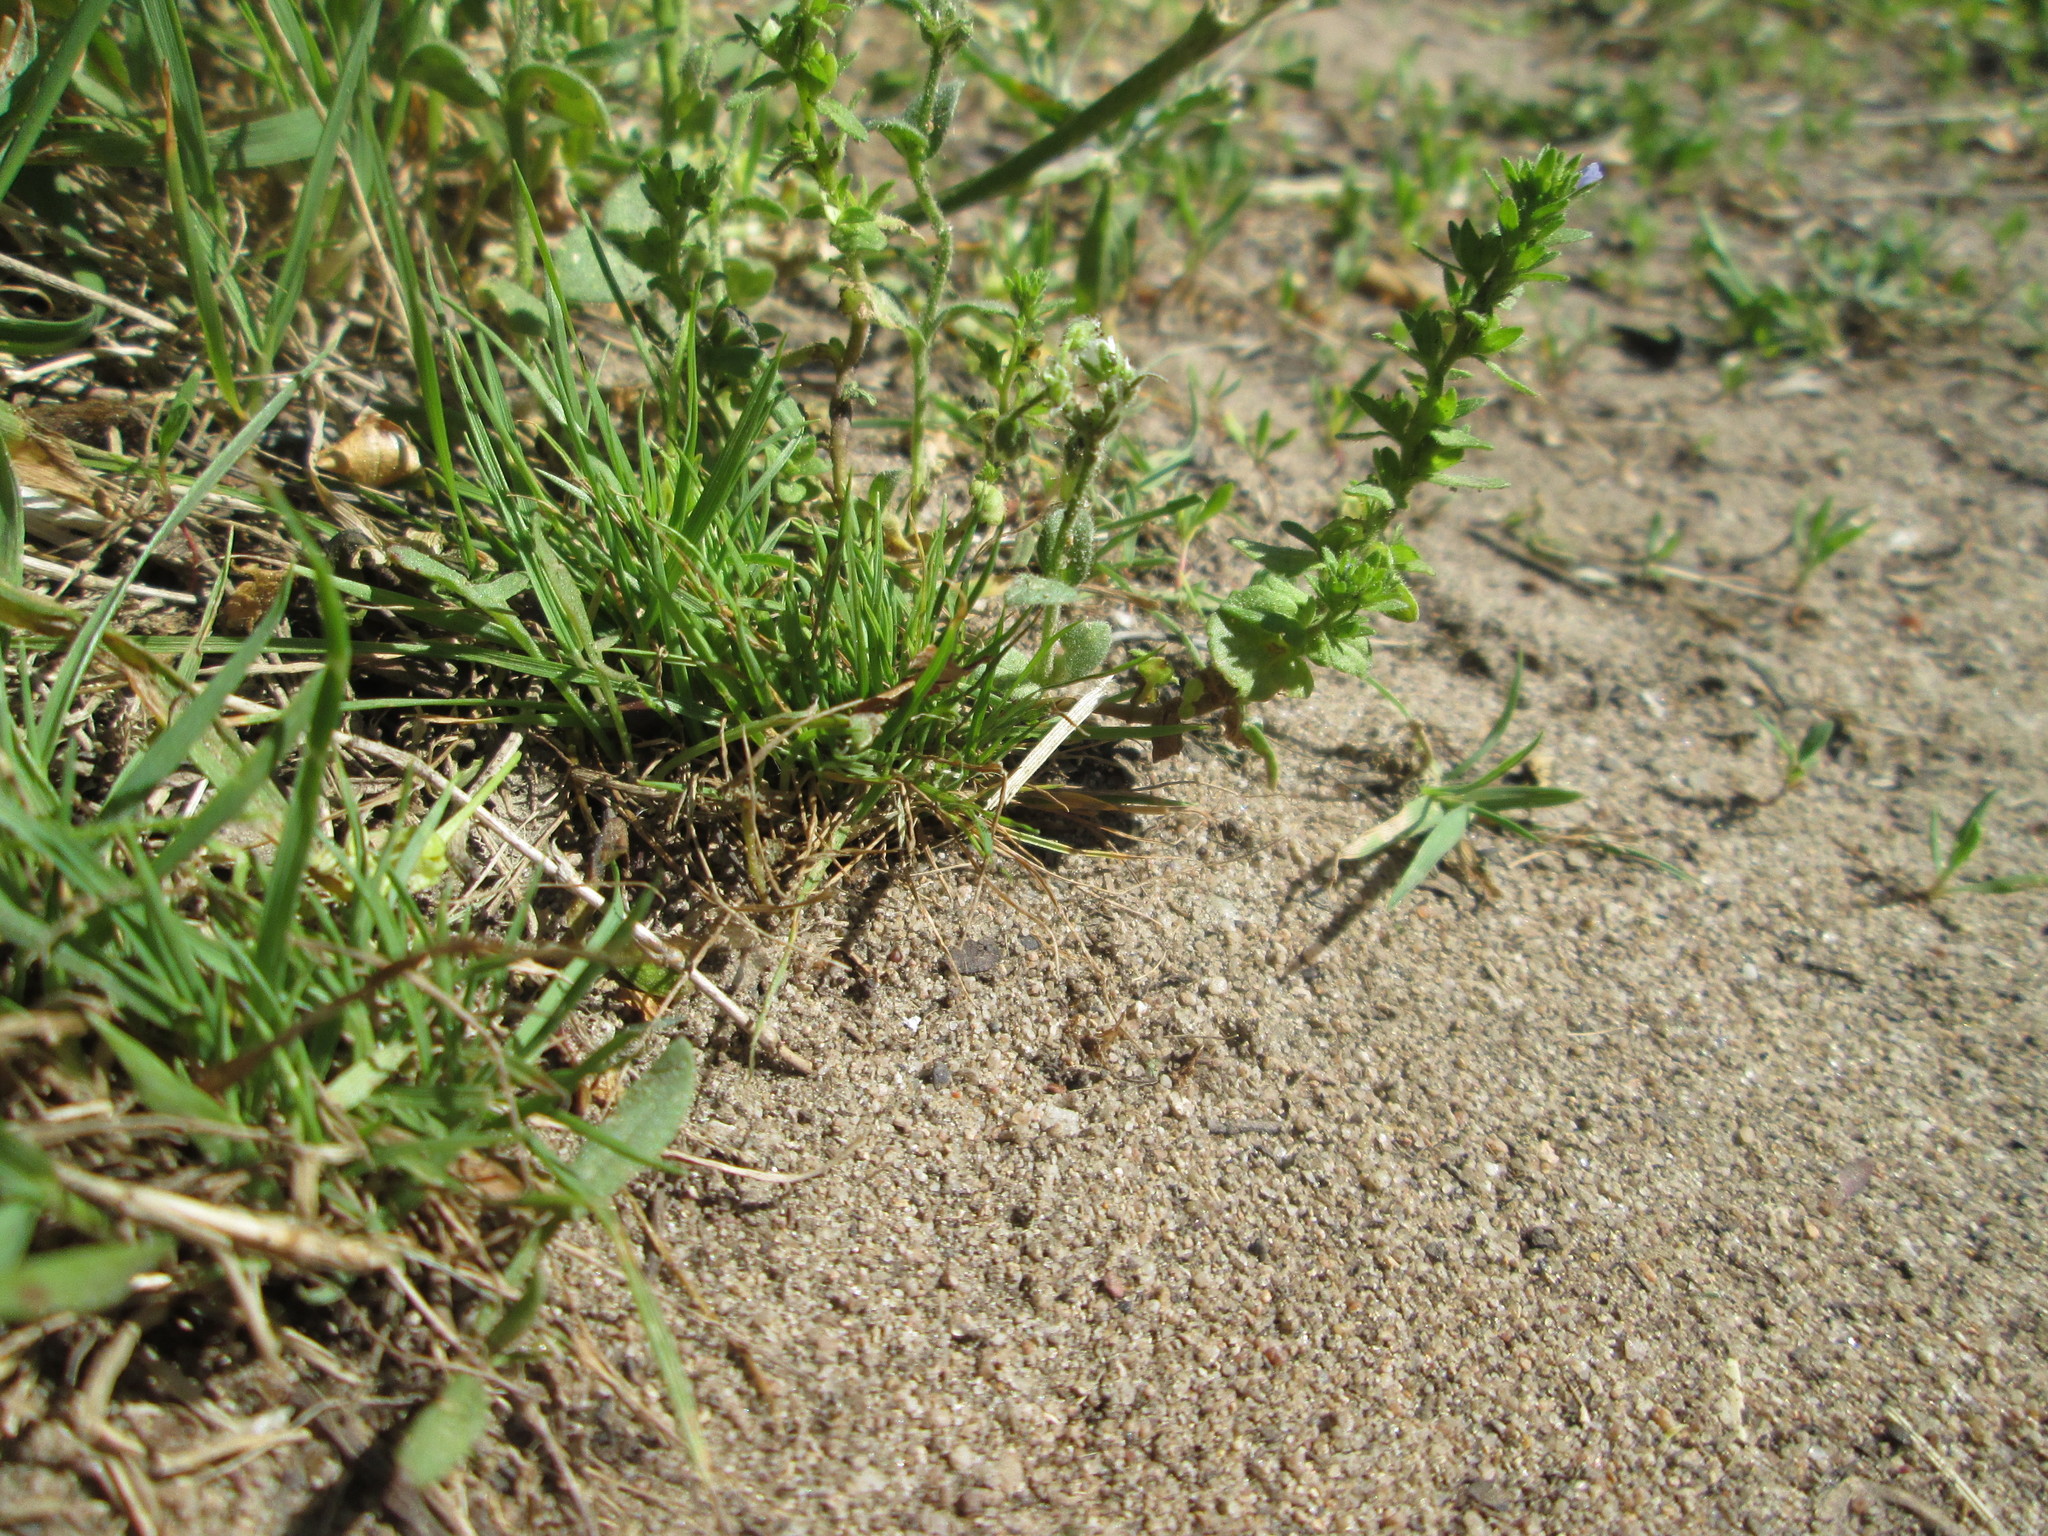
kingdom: Plantae
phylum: Tracheophyta
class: Magnoliopsida
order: Lamiales
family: Plantaginaceae
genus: Veronica
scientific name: Veronica arvensis
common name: Corn speedwell
